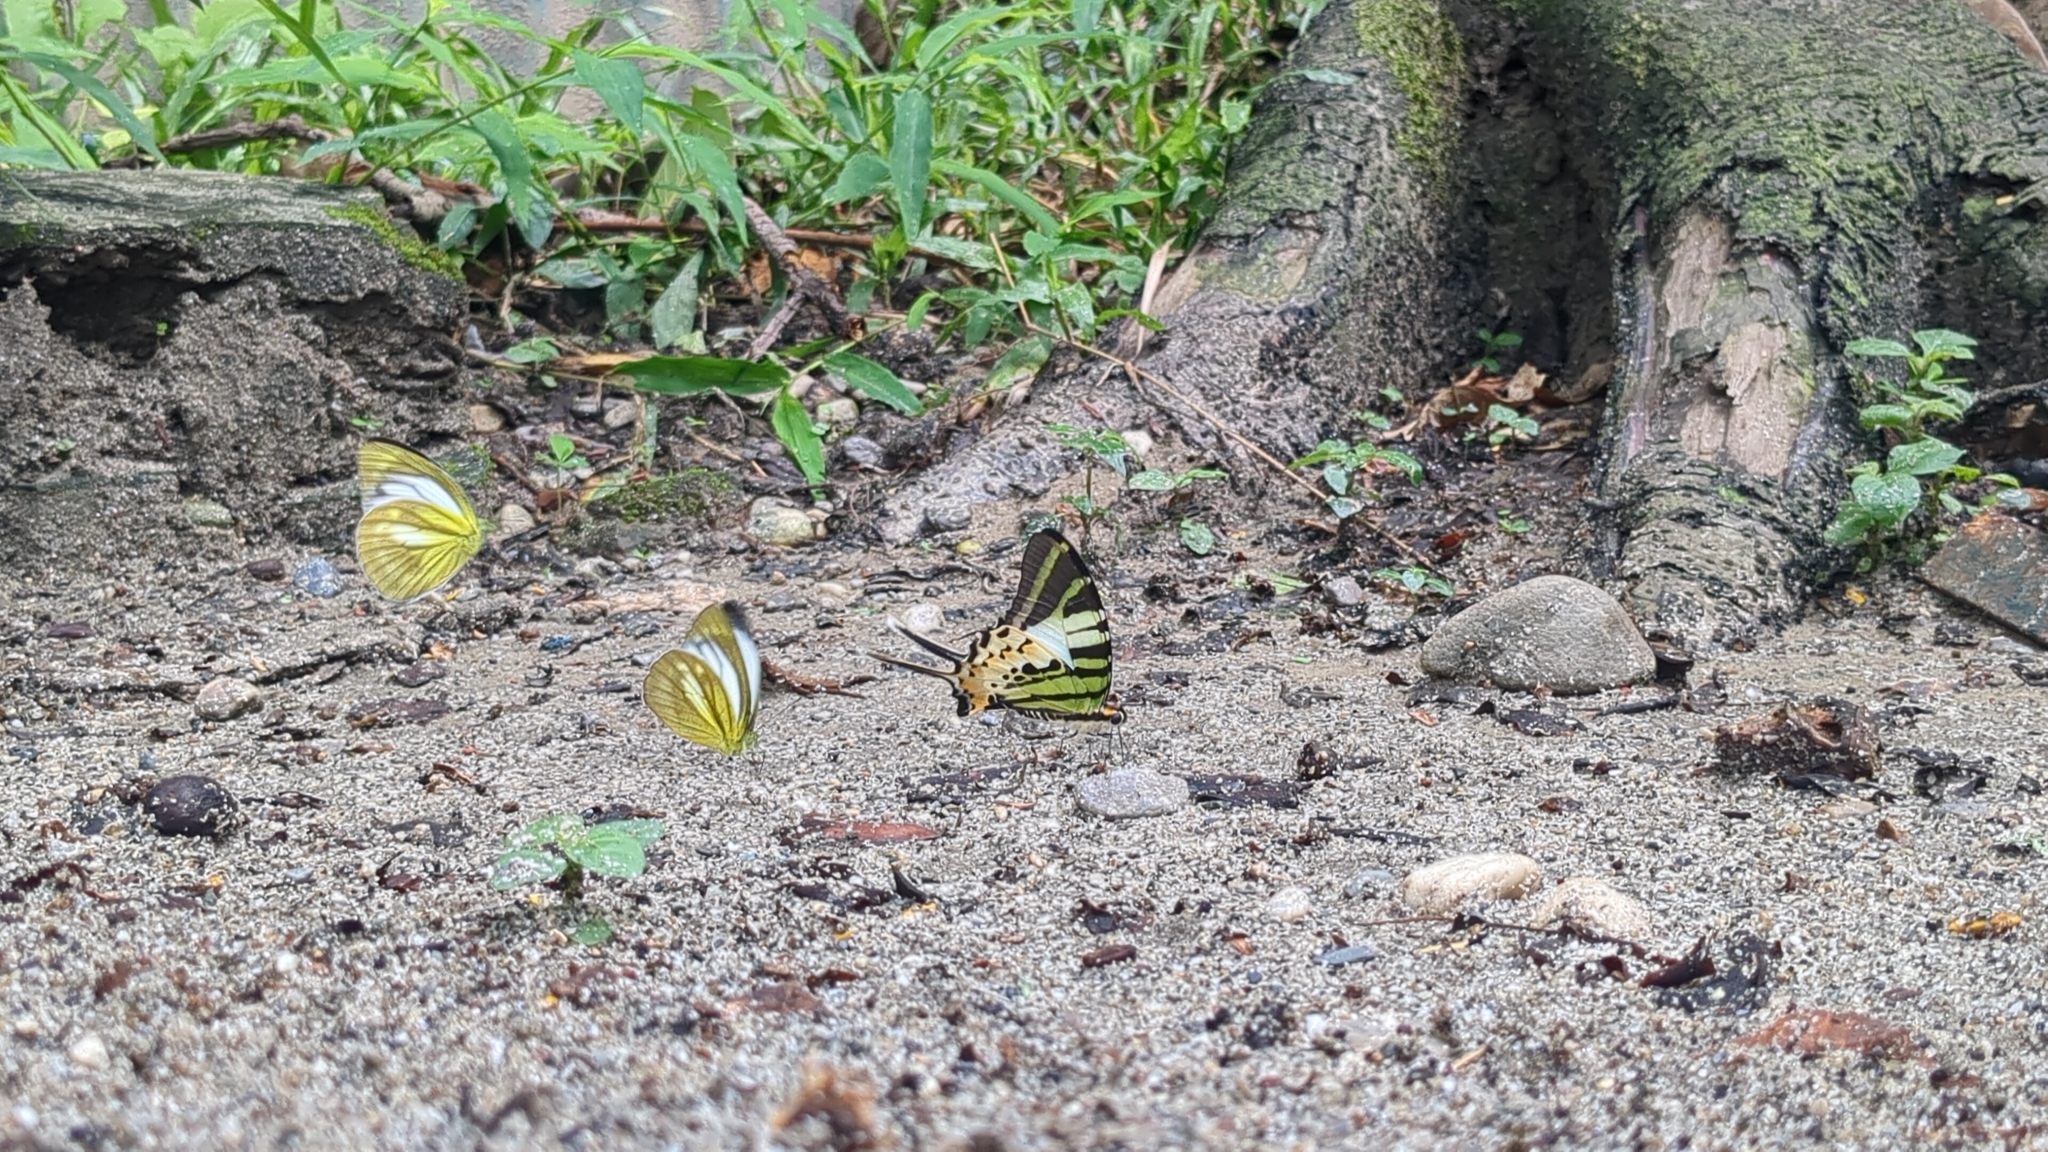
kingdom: Animalia
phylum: Arthropoda
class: Insecta
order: Lepidoptera
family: Papilionidae
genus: Graphium
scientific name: Graphium antiphates
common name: Fivebar swordtail
